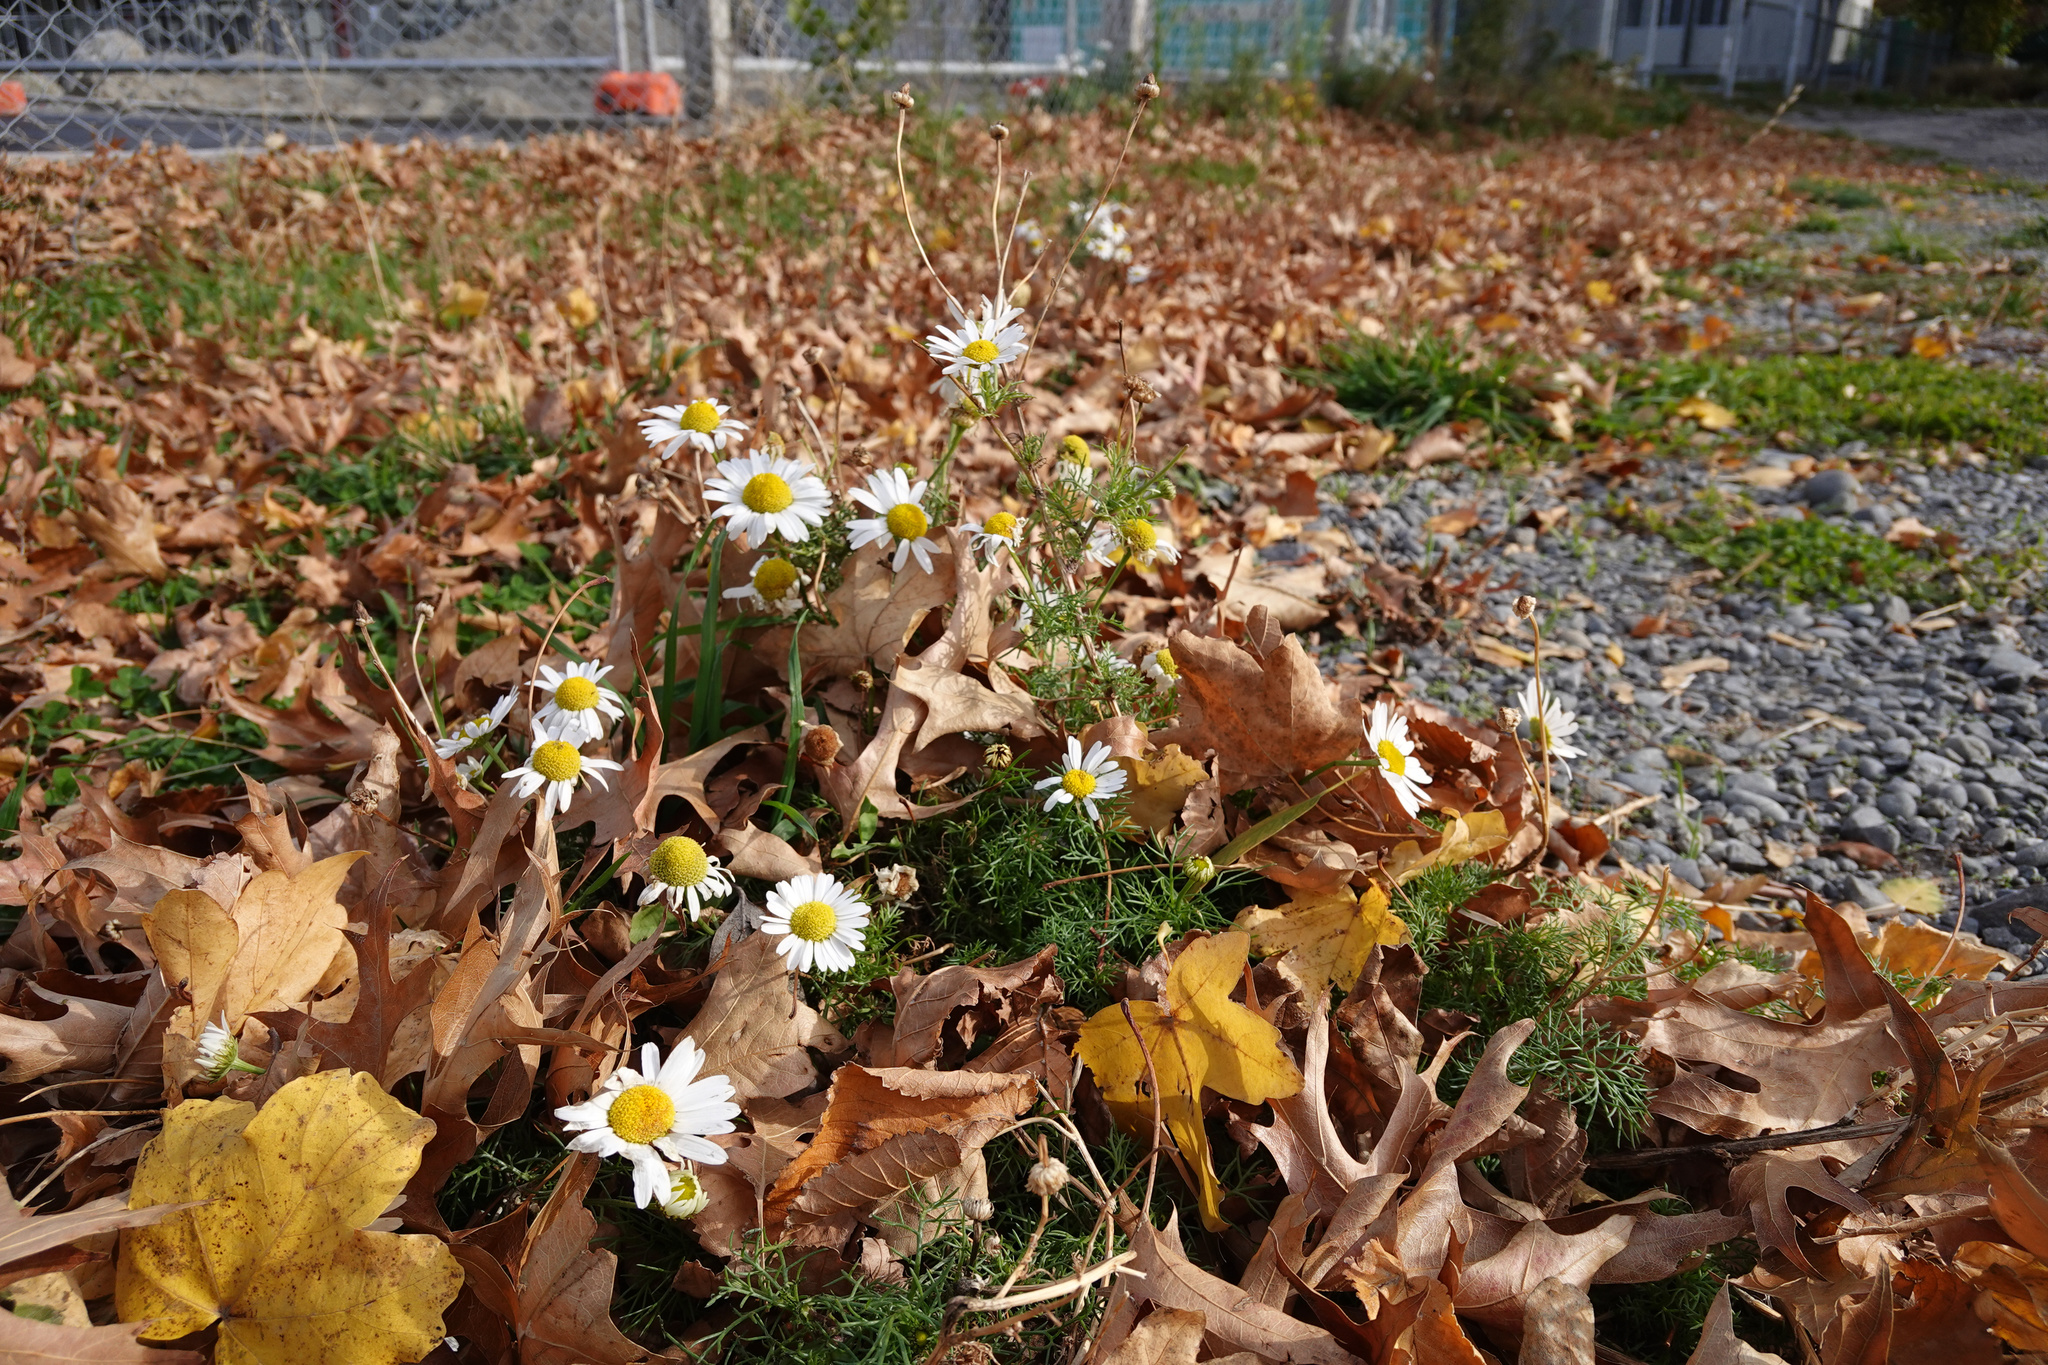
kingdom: Plantae
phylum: Tracheophyta
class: Magnoliopsida
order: Asterales
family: Asteraceae
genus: Tripleurospermum
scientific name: Tripleurospermum inodorum
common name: Scentless mayweed
